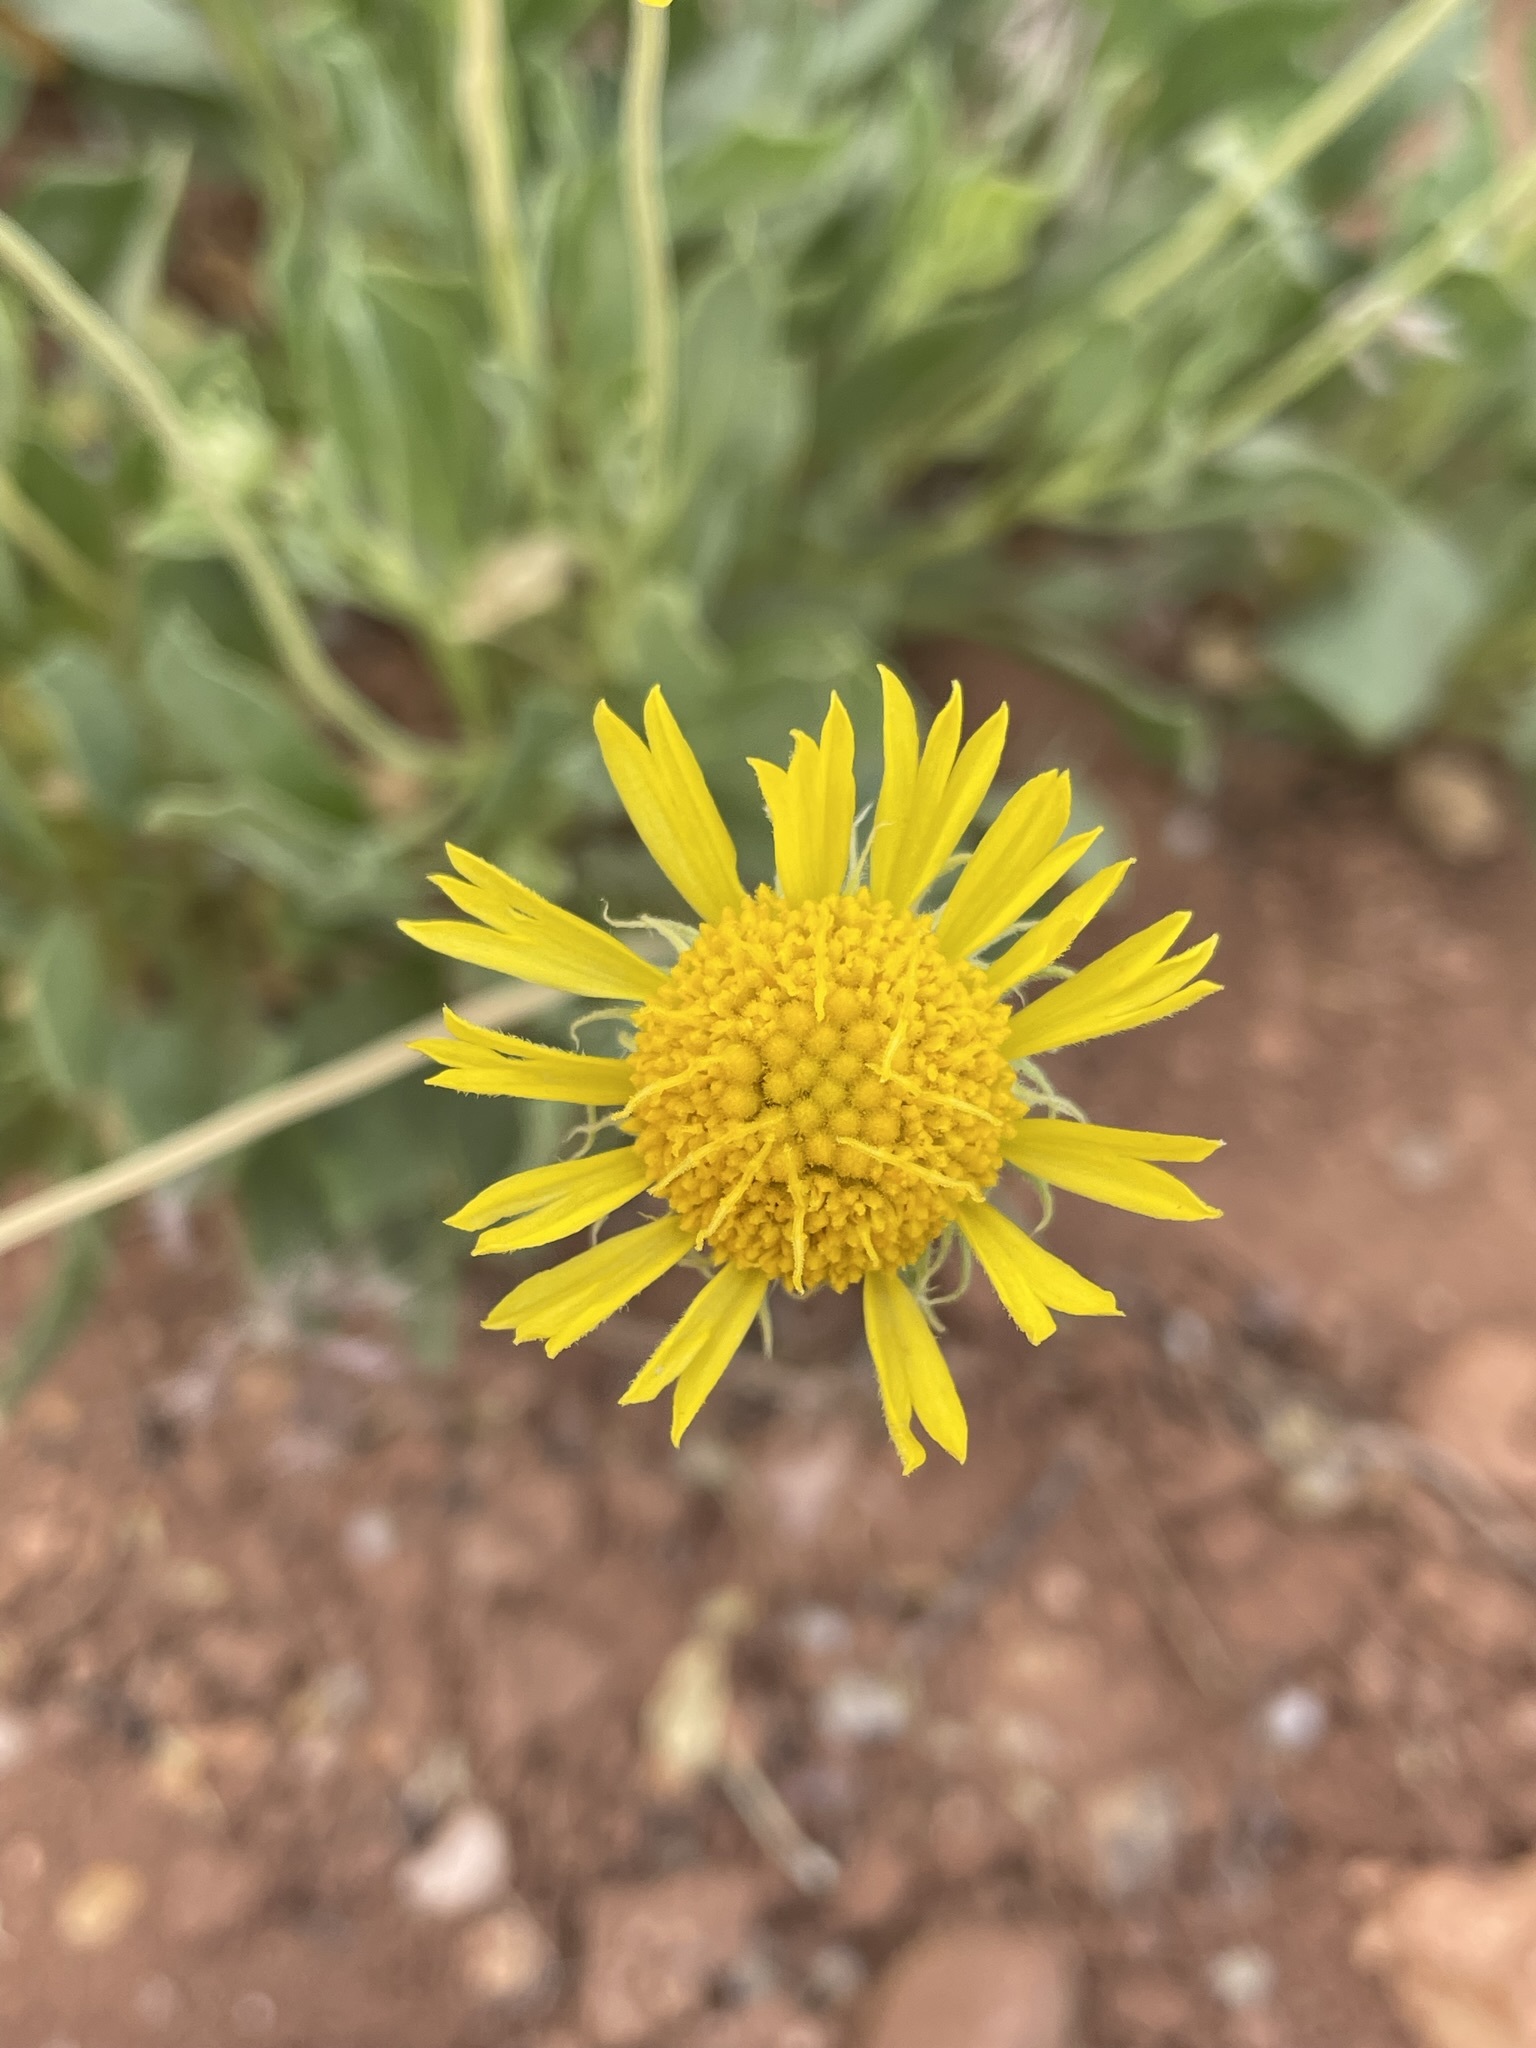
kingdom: Plantae
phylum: Tracheophyta
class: Magnoliopsida
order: Asterales
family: Asteraceae
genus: Gaillardia
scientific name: Gaillardia parryi
